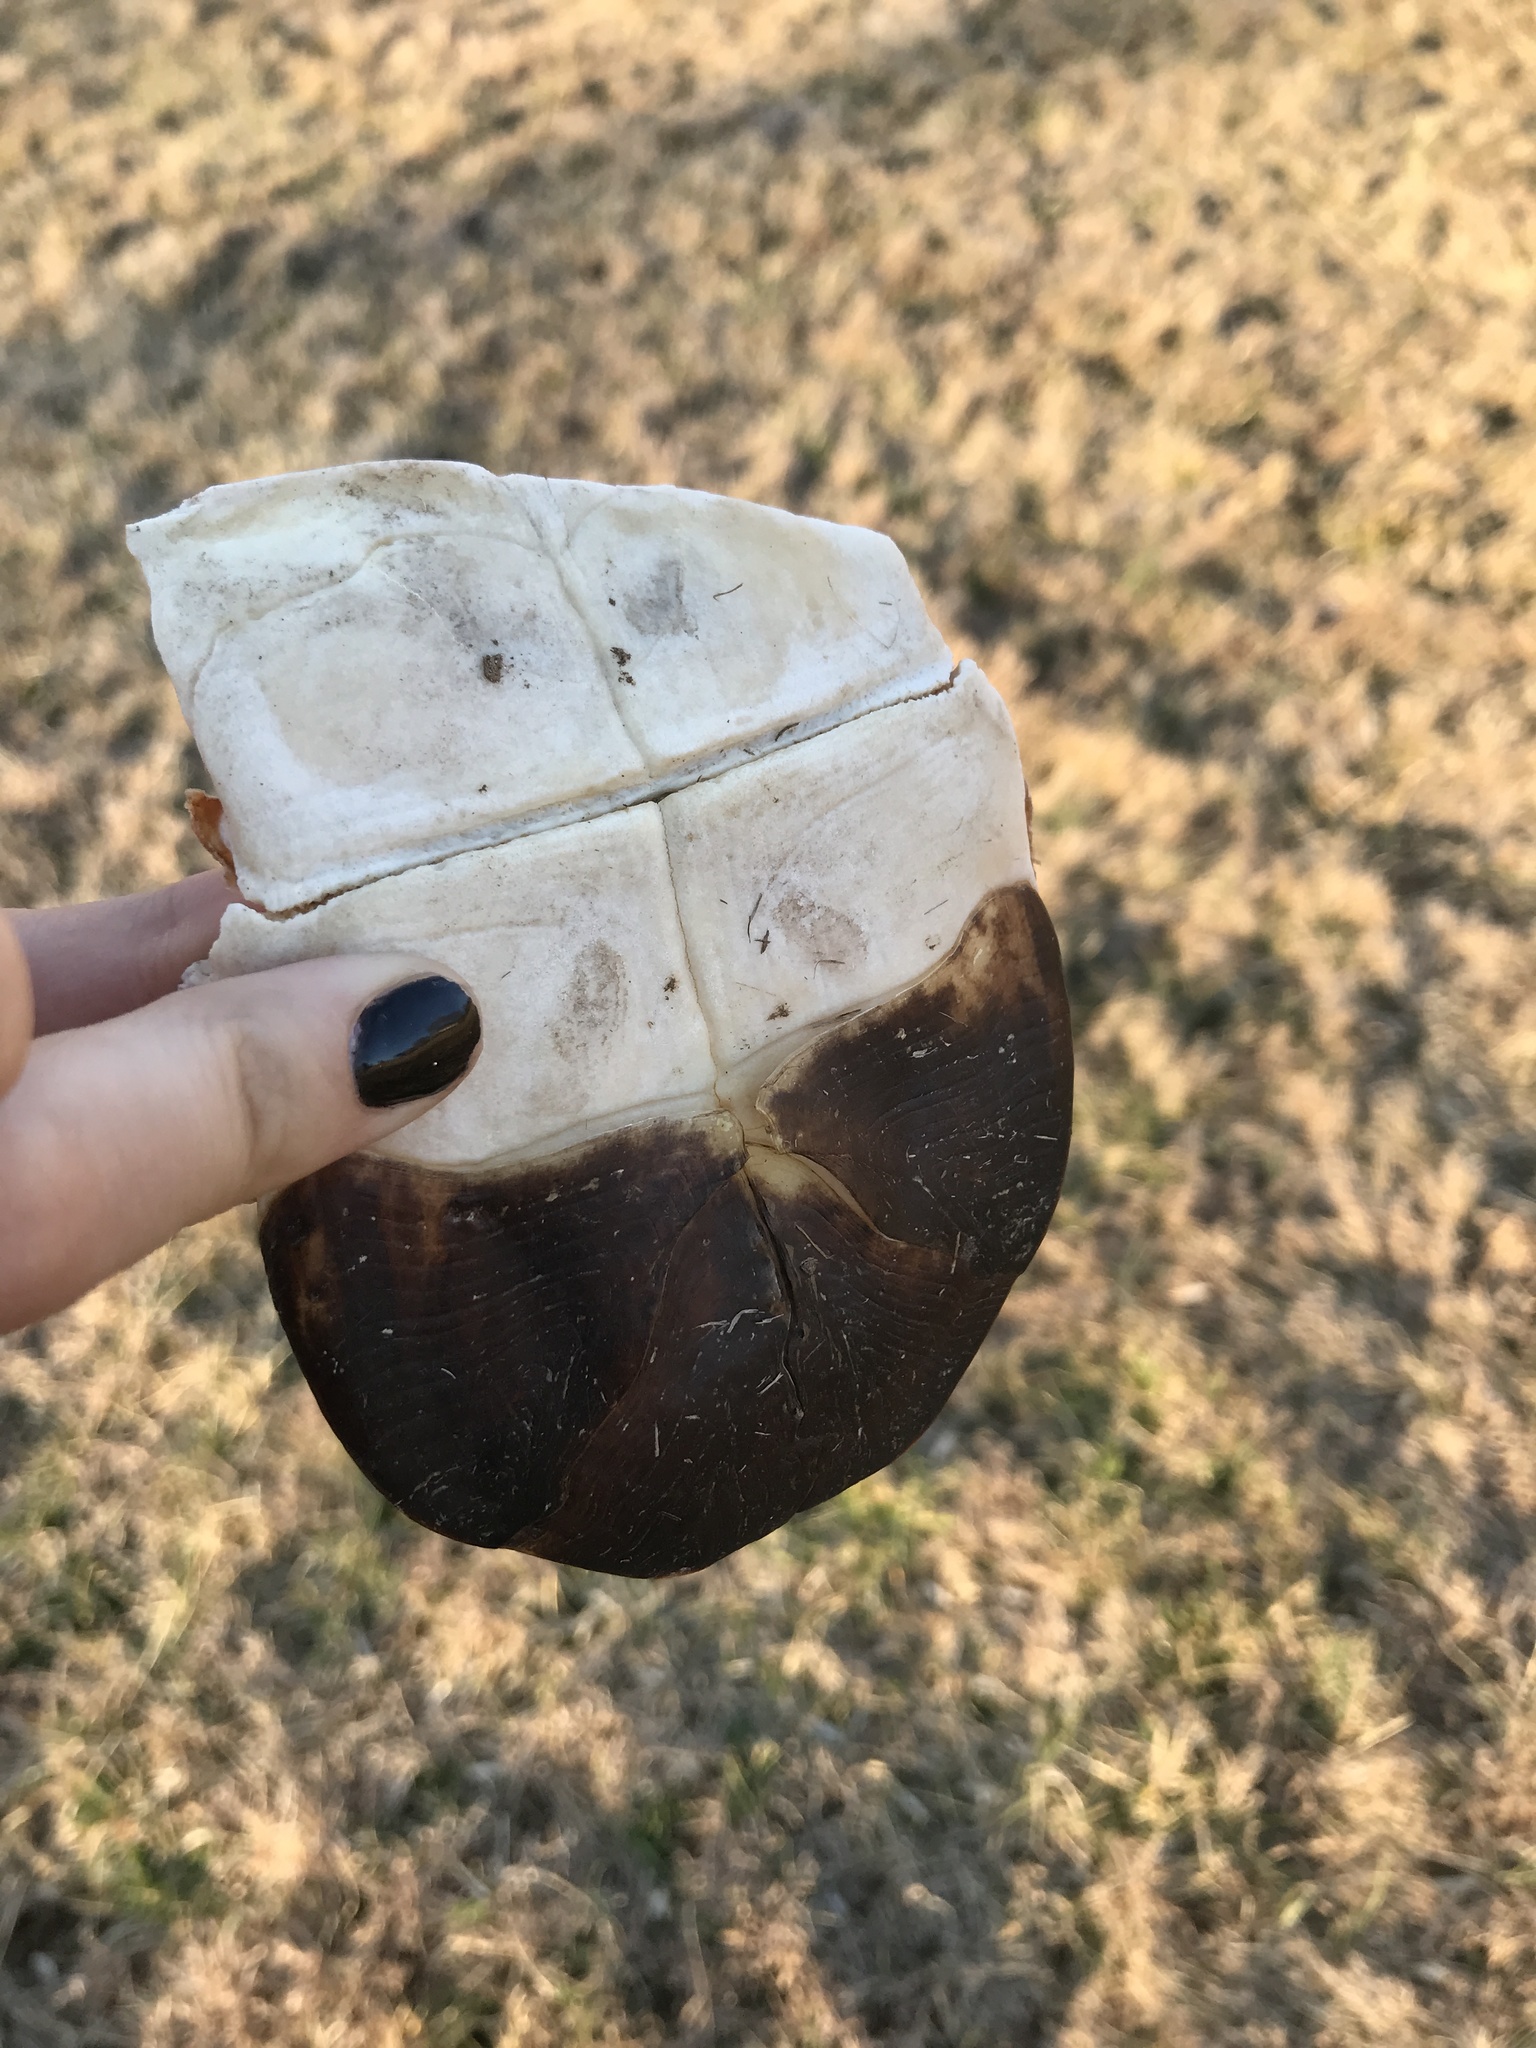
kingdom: Animalia
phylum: Chordata
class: Testudines
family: Emydidae
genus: Terrapene
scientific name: Terrapene carolina
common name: Common box turtle
